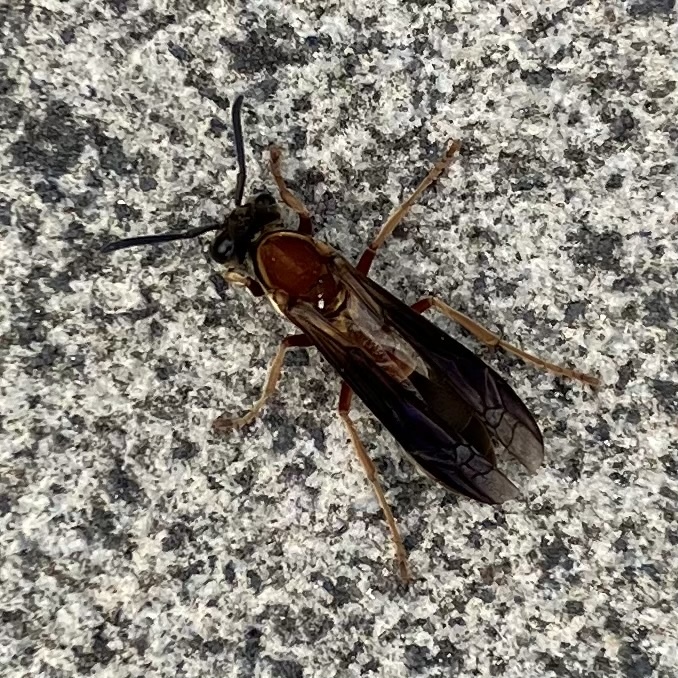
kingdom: Animalia
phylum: Arthropoda
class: Insecta
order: Hymenoptera
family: Eumenidae
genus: Polybia
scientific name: Polybia sericea
